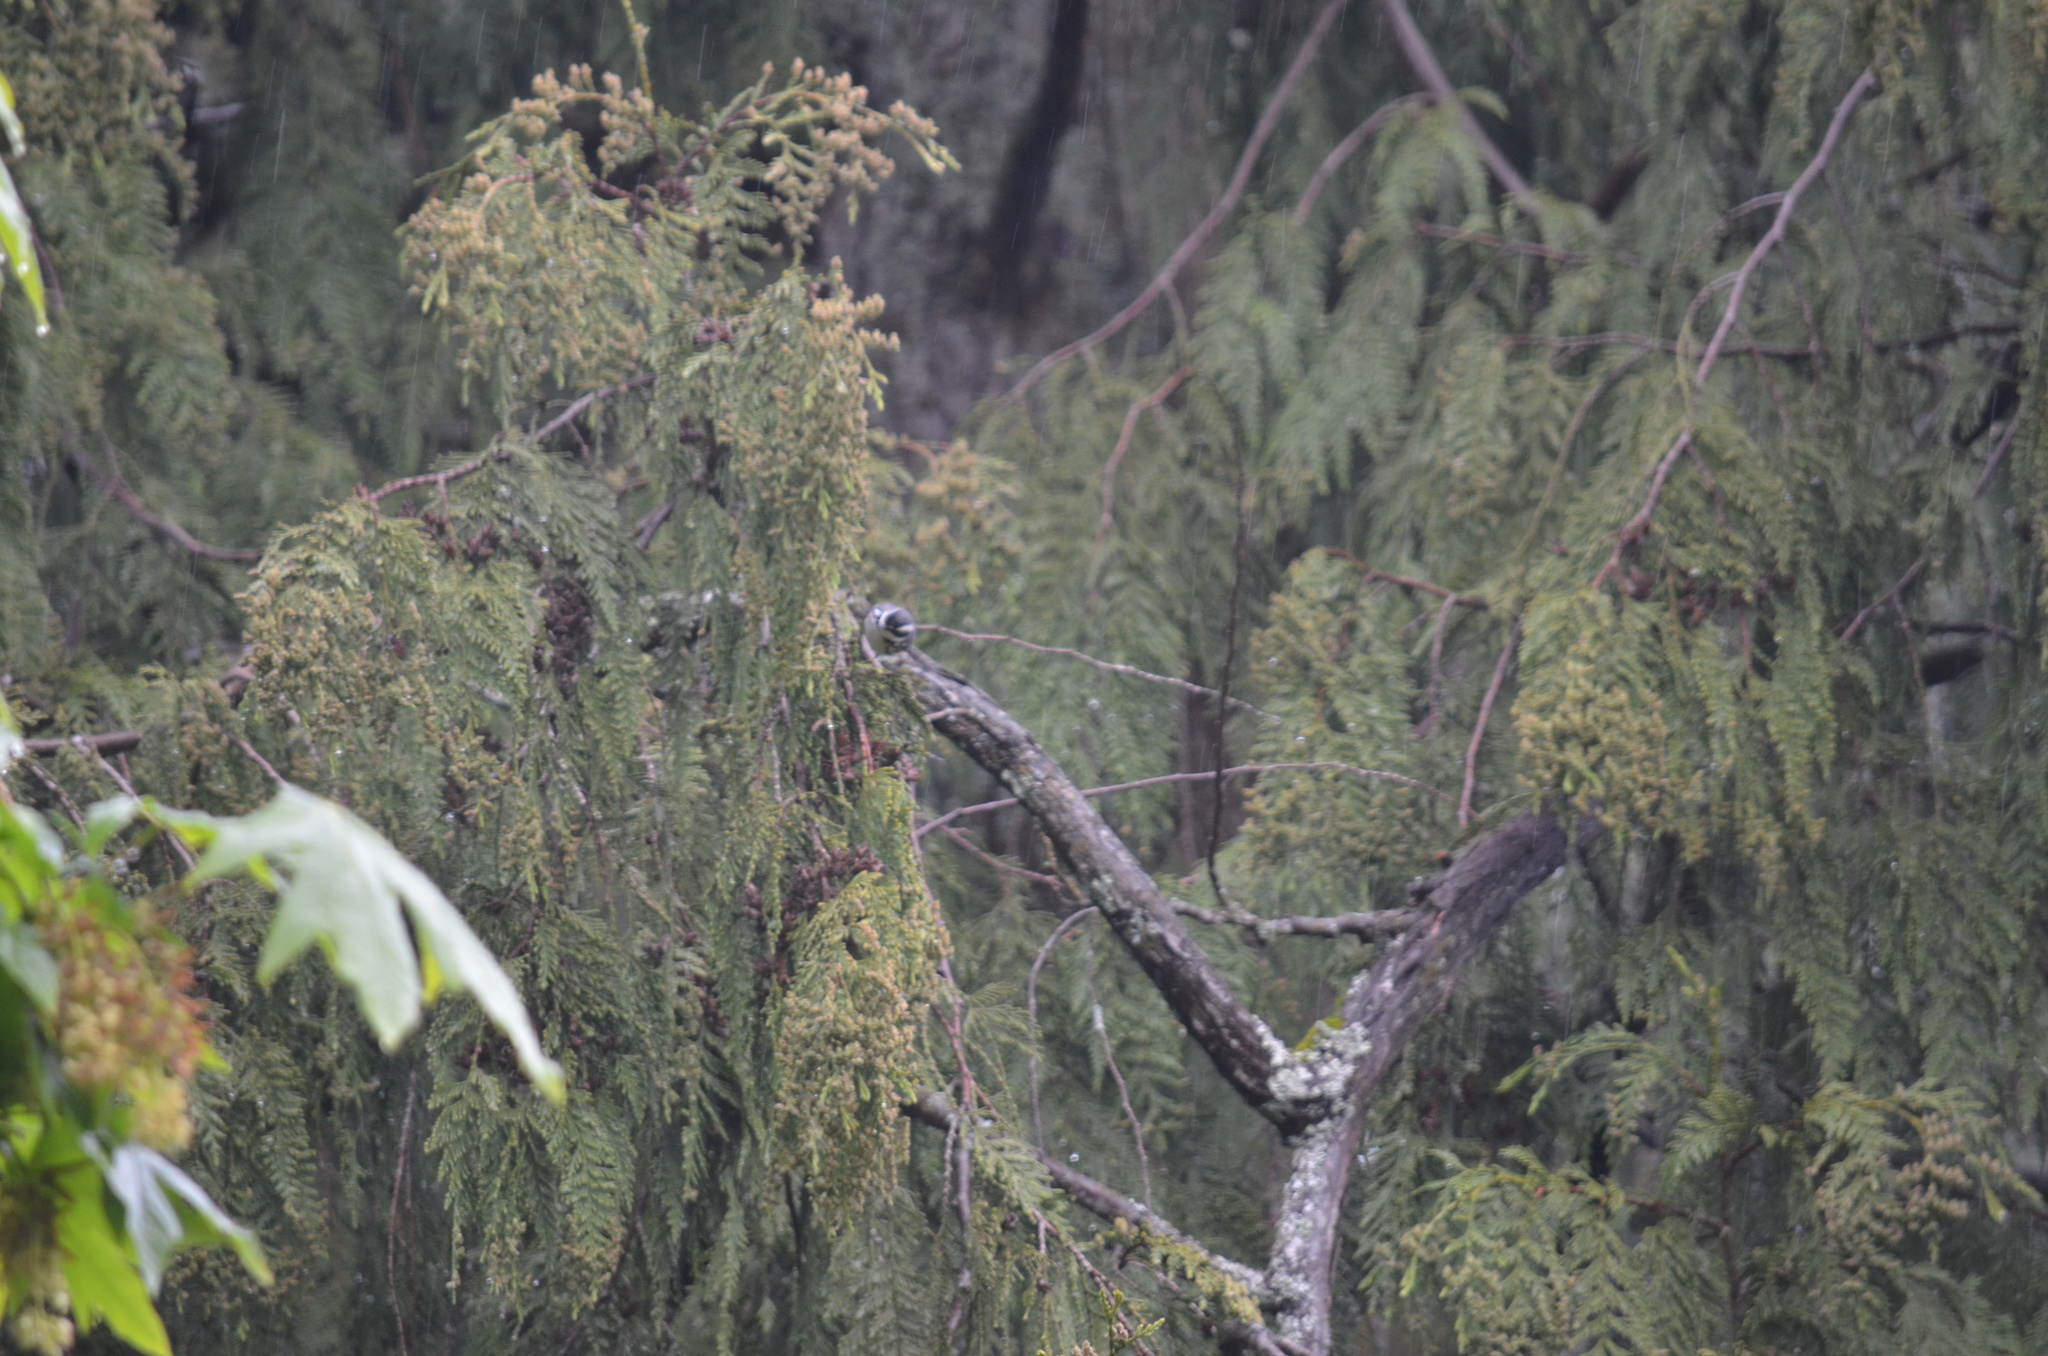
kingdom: Animalia
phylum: Chordata
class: Aves
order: Passeriformes
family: Parulidae
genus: Setophaga
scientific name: Setophaga nigrescens
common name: Black-throated gray warbler
